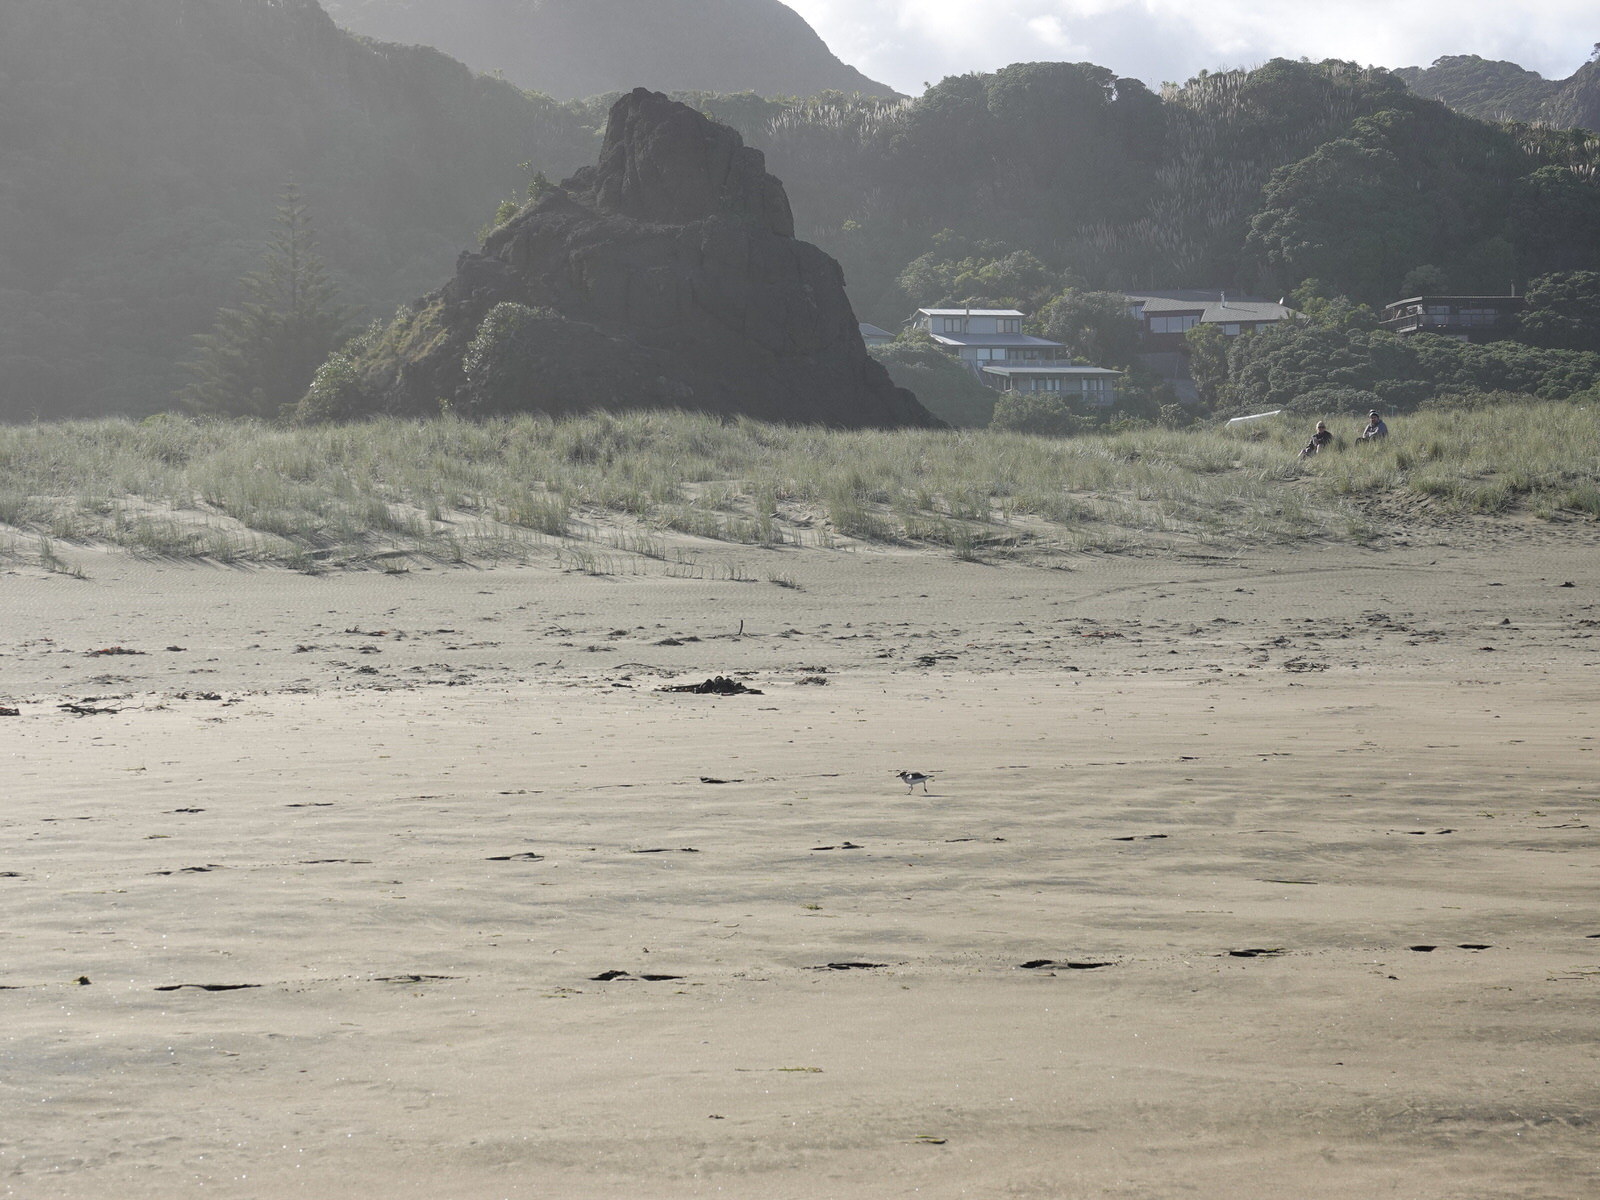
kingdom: Animalia
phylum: Chordata
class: Aves
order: Charadriiformes
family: Charadriidae
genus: Anarhynchus
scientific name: Anarhynchus
